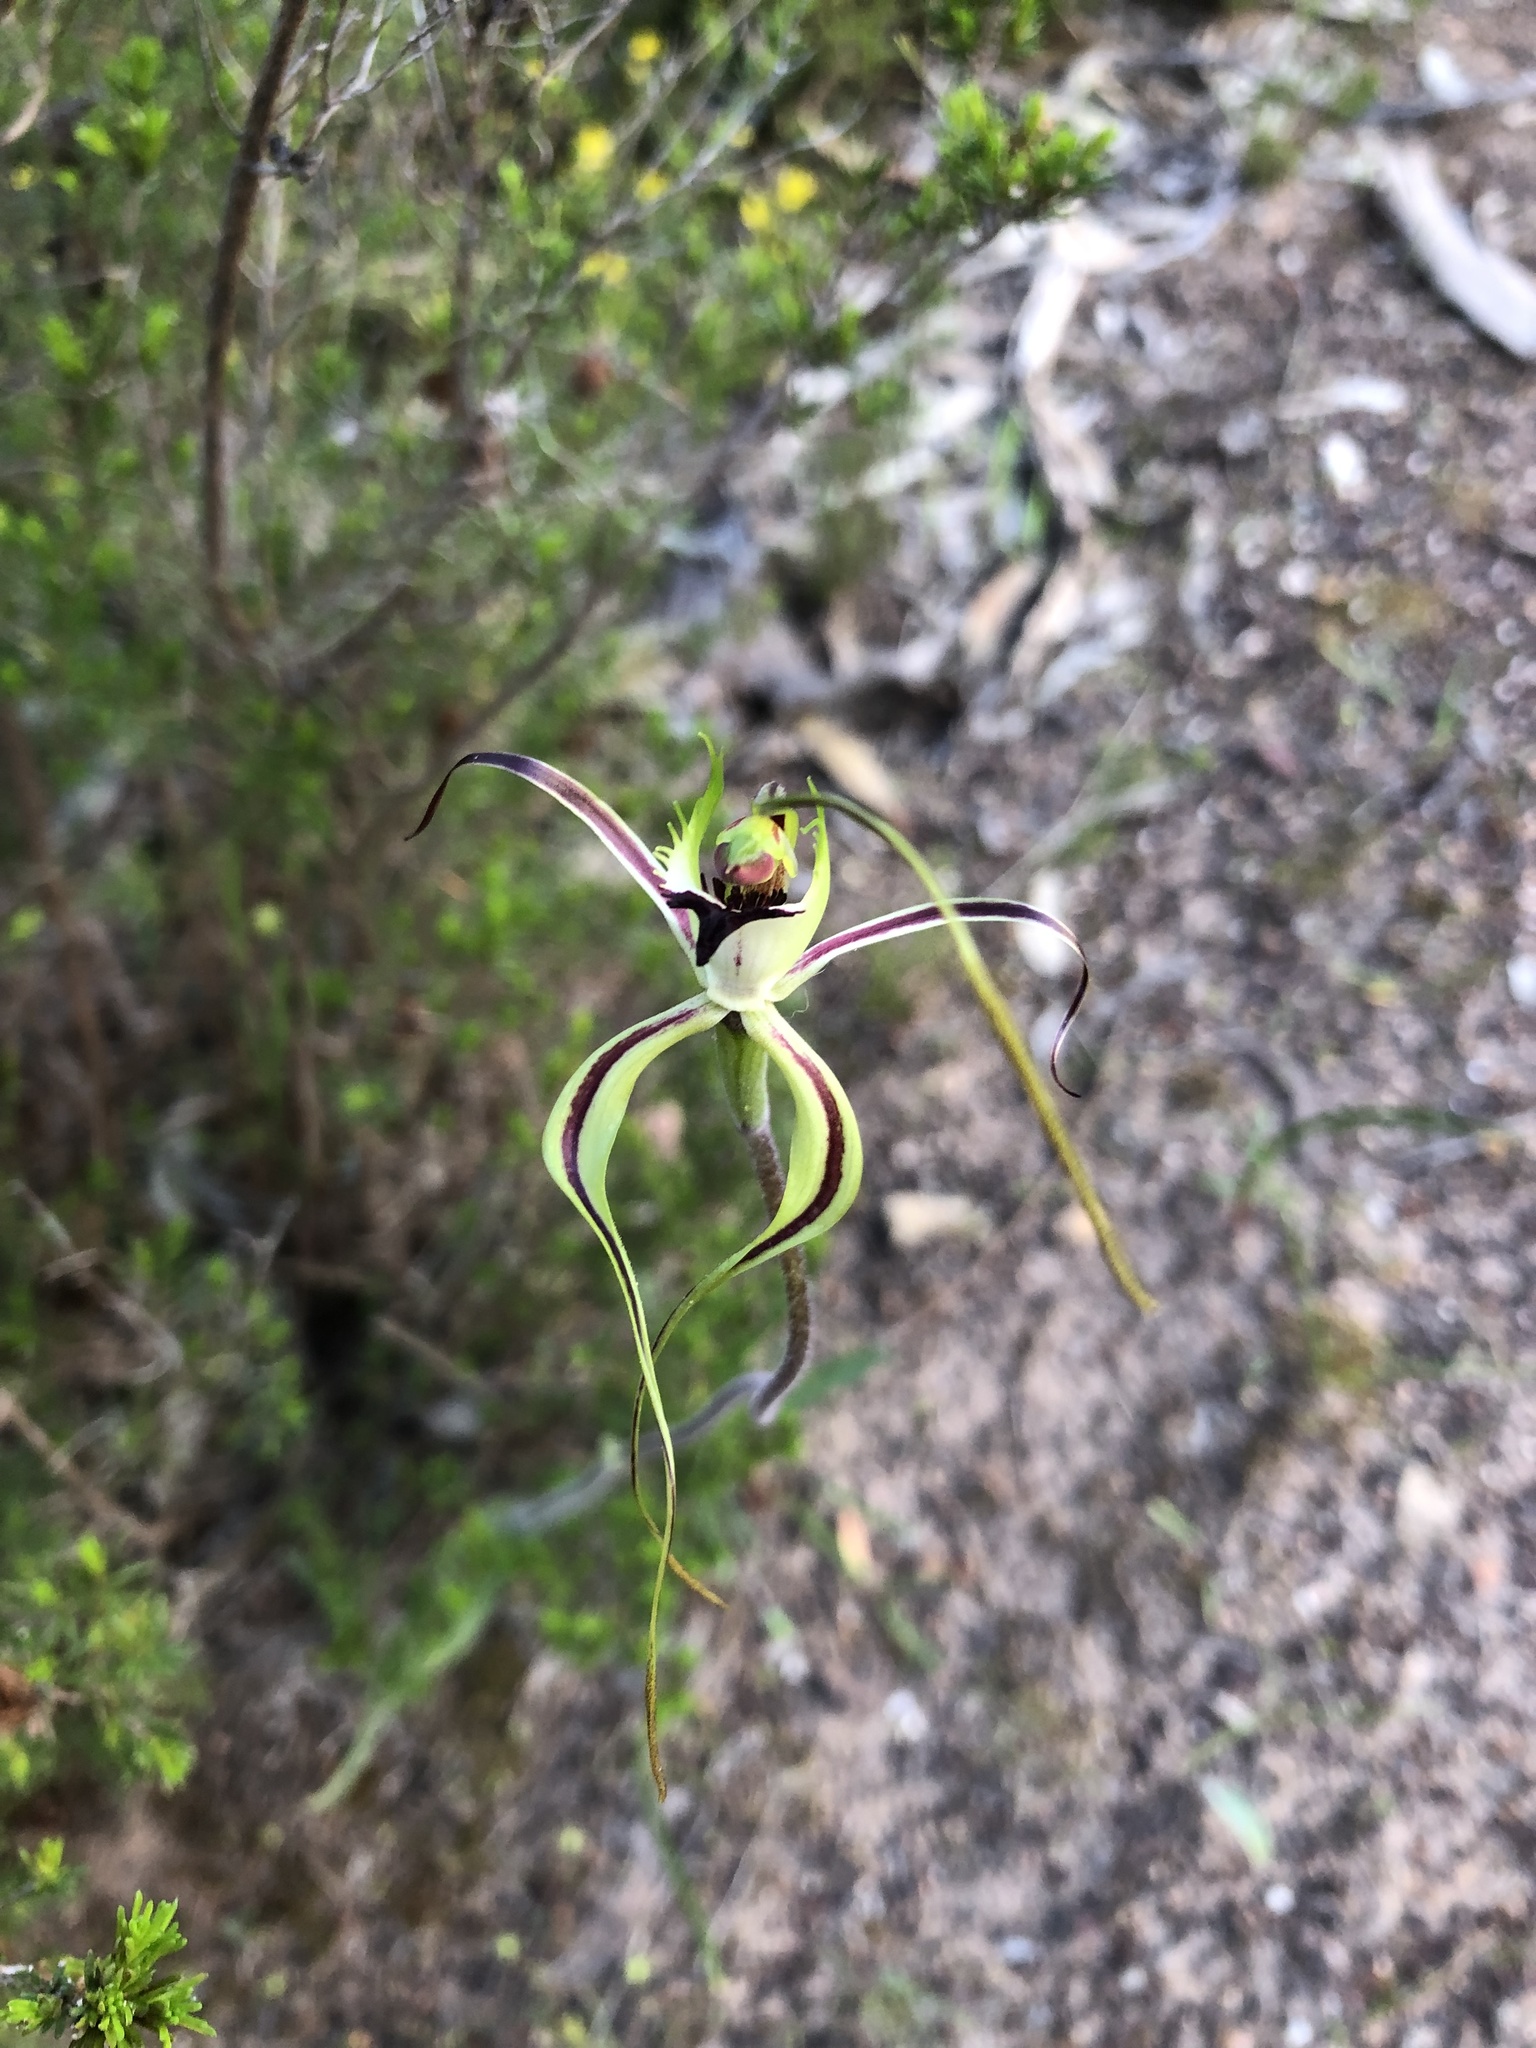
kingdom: Plantae
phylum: Tracheophyta
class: Liliopsida
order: Asparagales
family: Orchidaceae
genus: Caladenia
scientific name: Caladenia tentaculata
